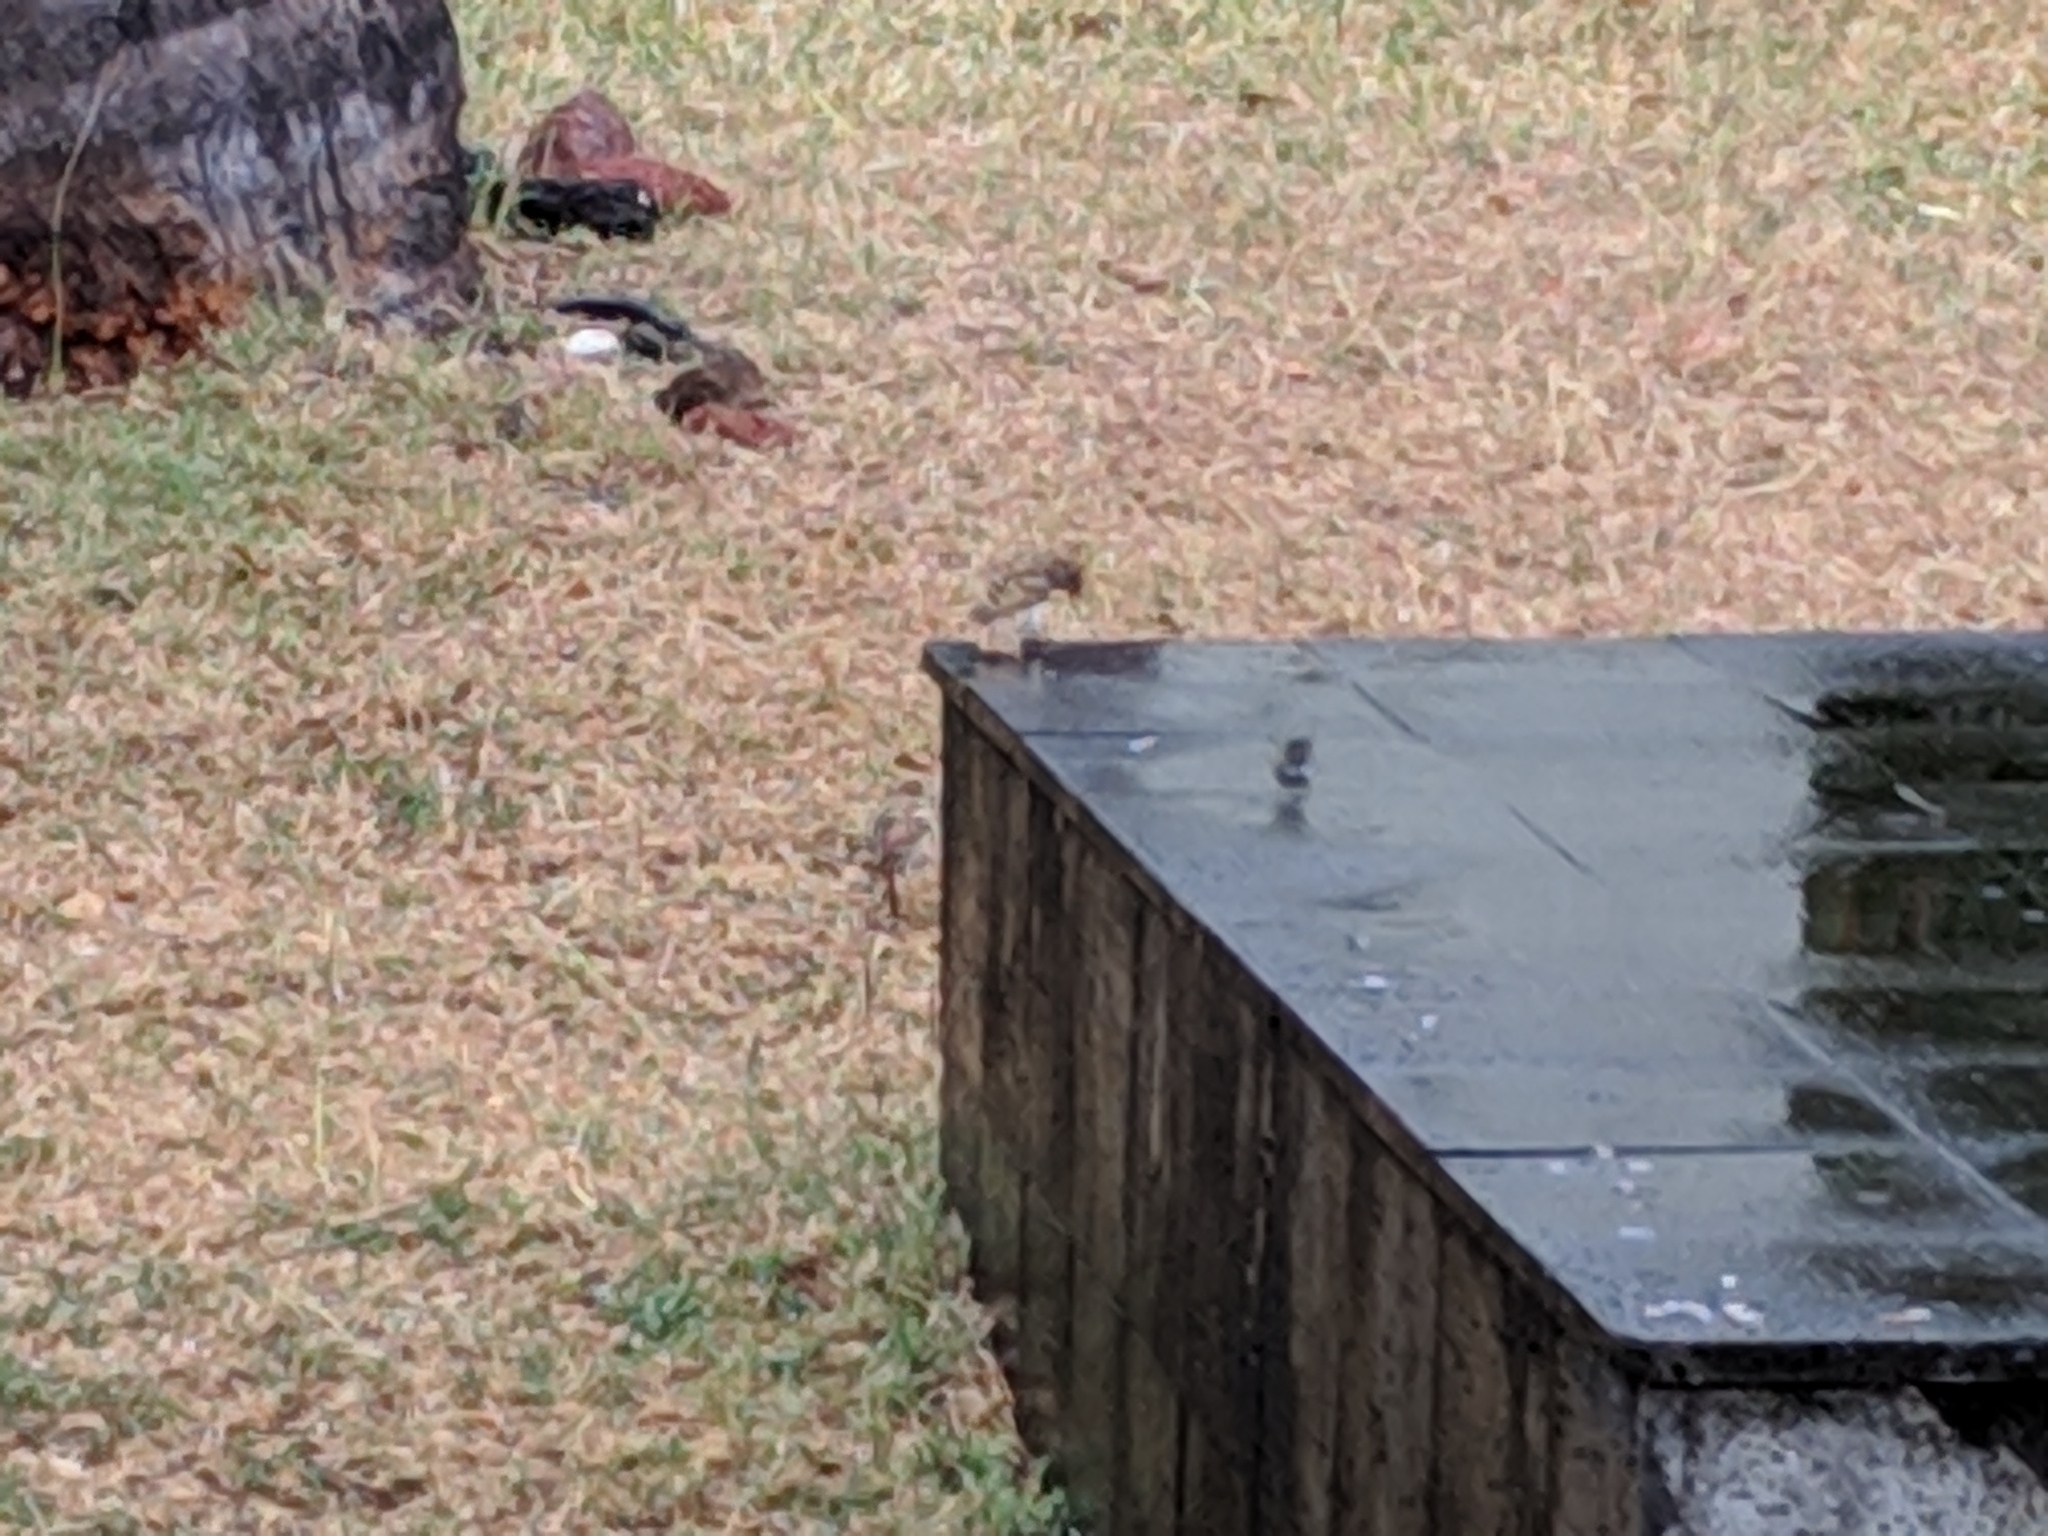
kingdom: Animalia
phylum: Chordata
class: Aves
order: Passeriformes
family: Passeridae
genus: Passer
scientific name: Passer domesticus
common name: House sparrow
